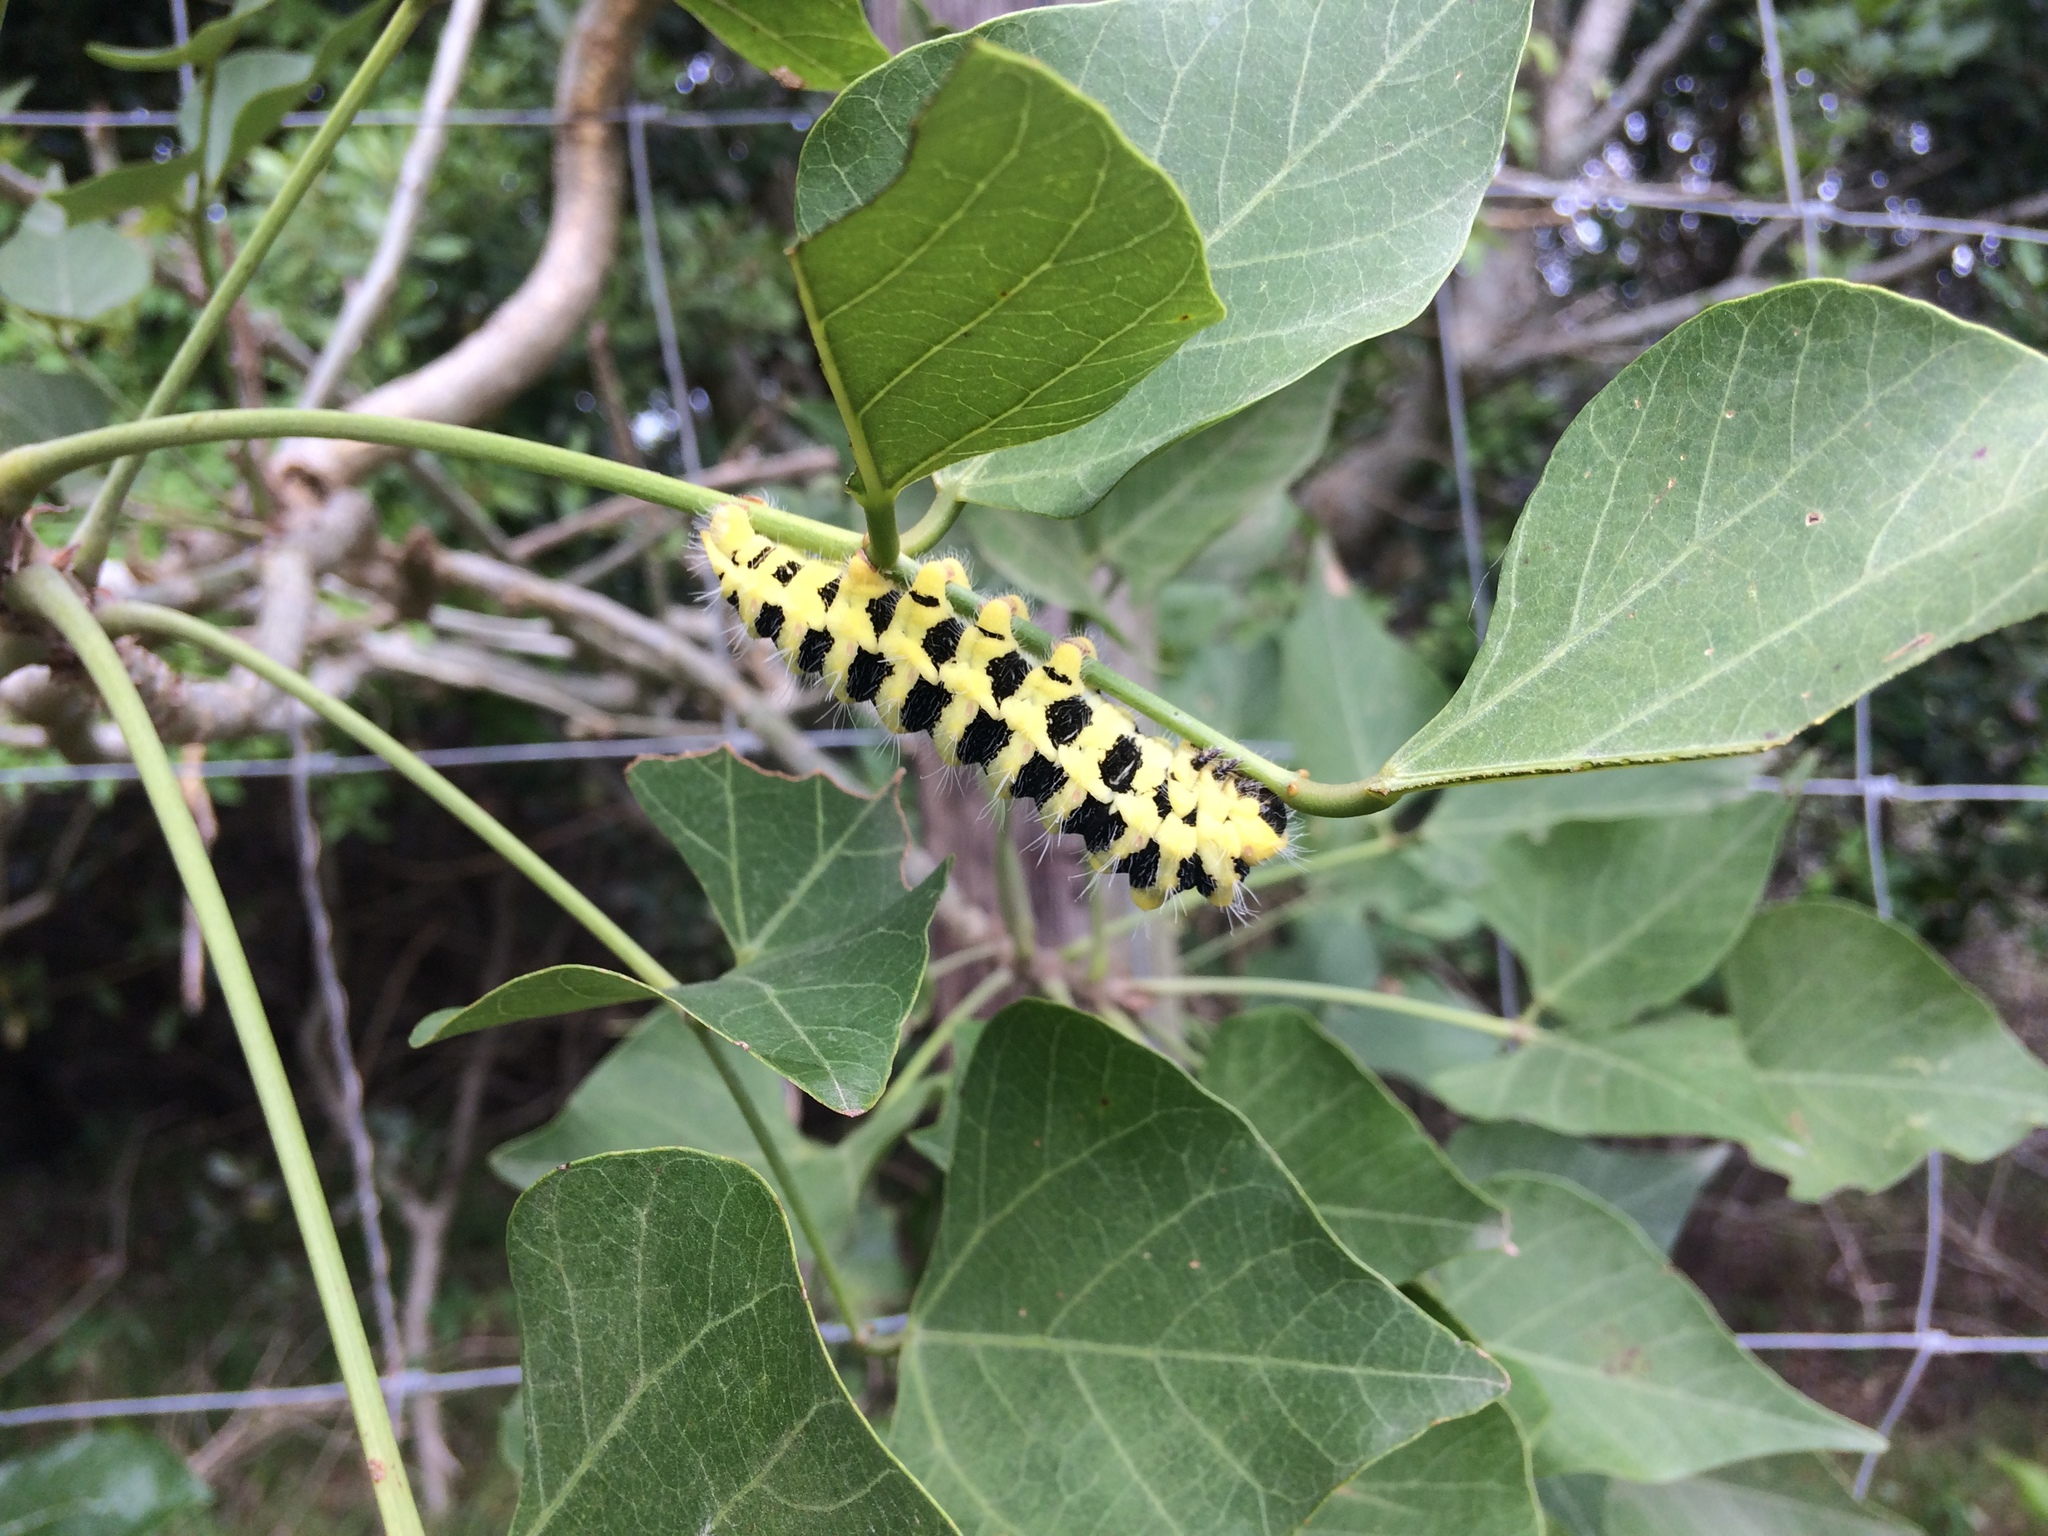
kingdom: Animalia
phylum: Arthropoda
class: Insecta
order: Lepidoptera
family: Saturniidae
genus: Urota
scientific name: Urota sinope
